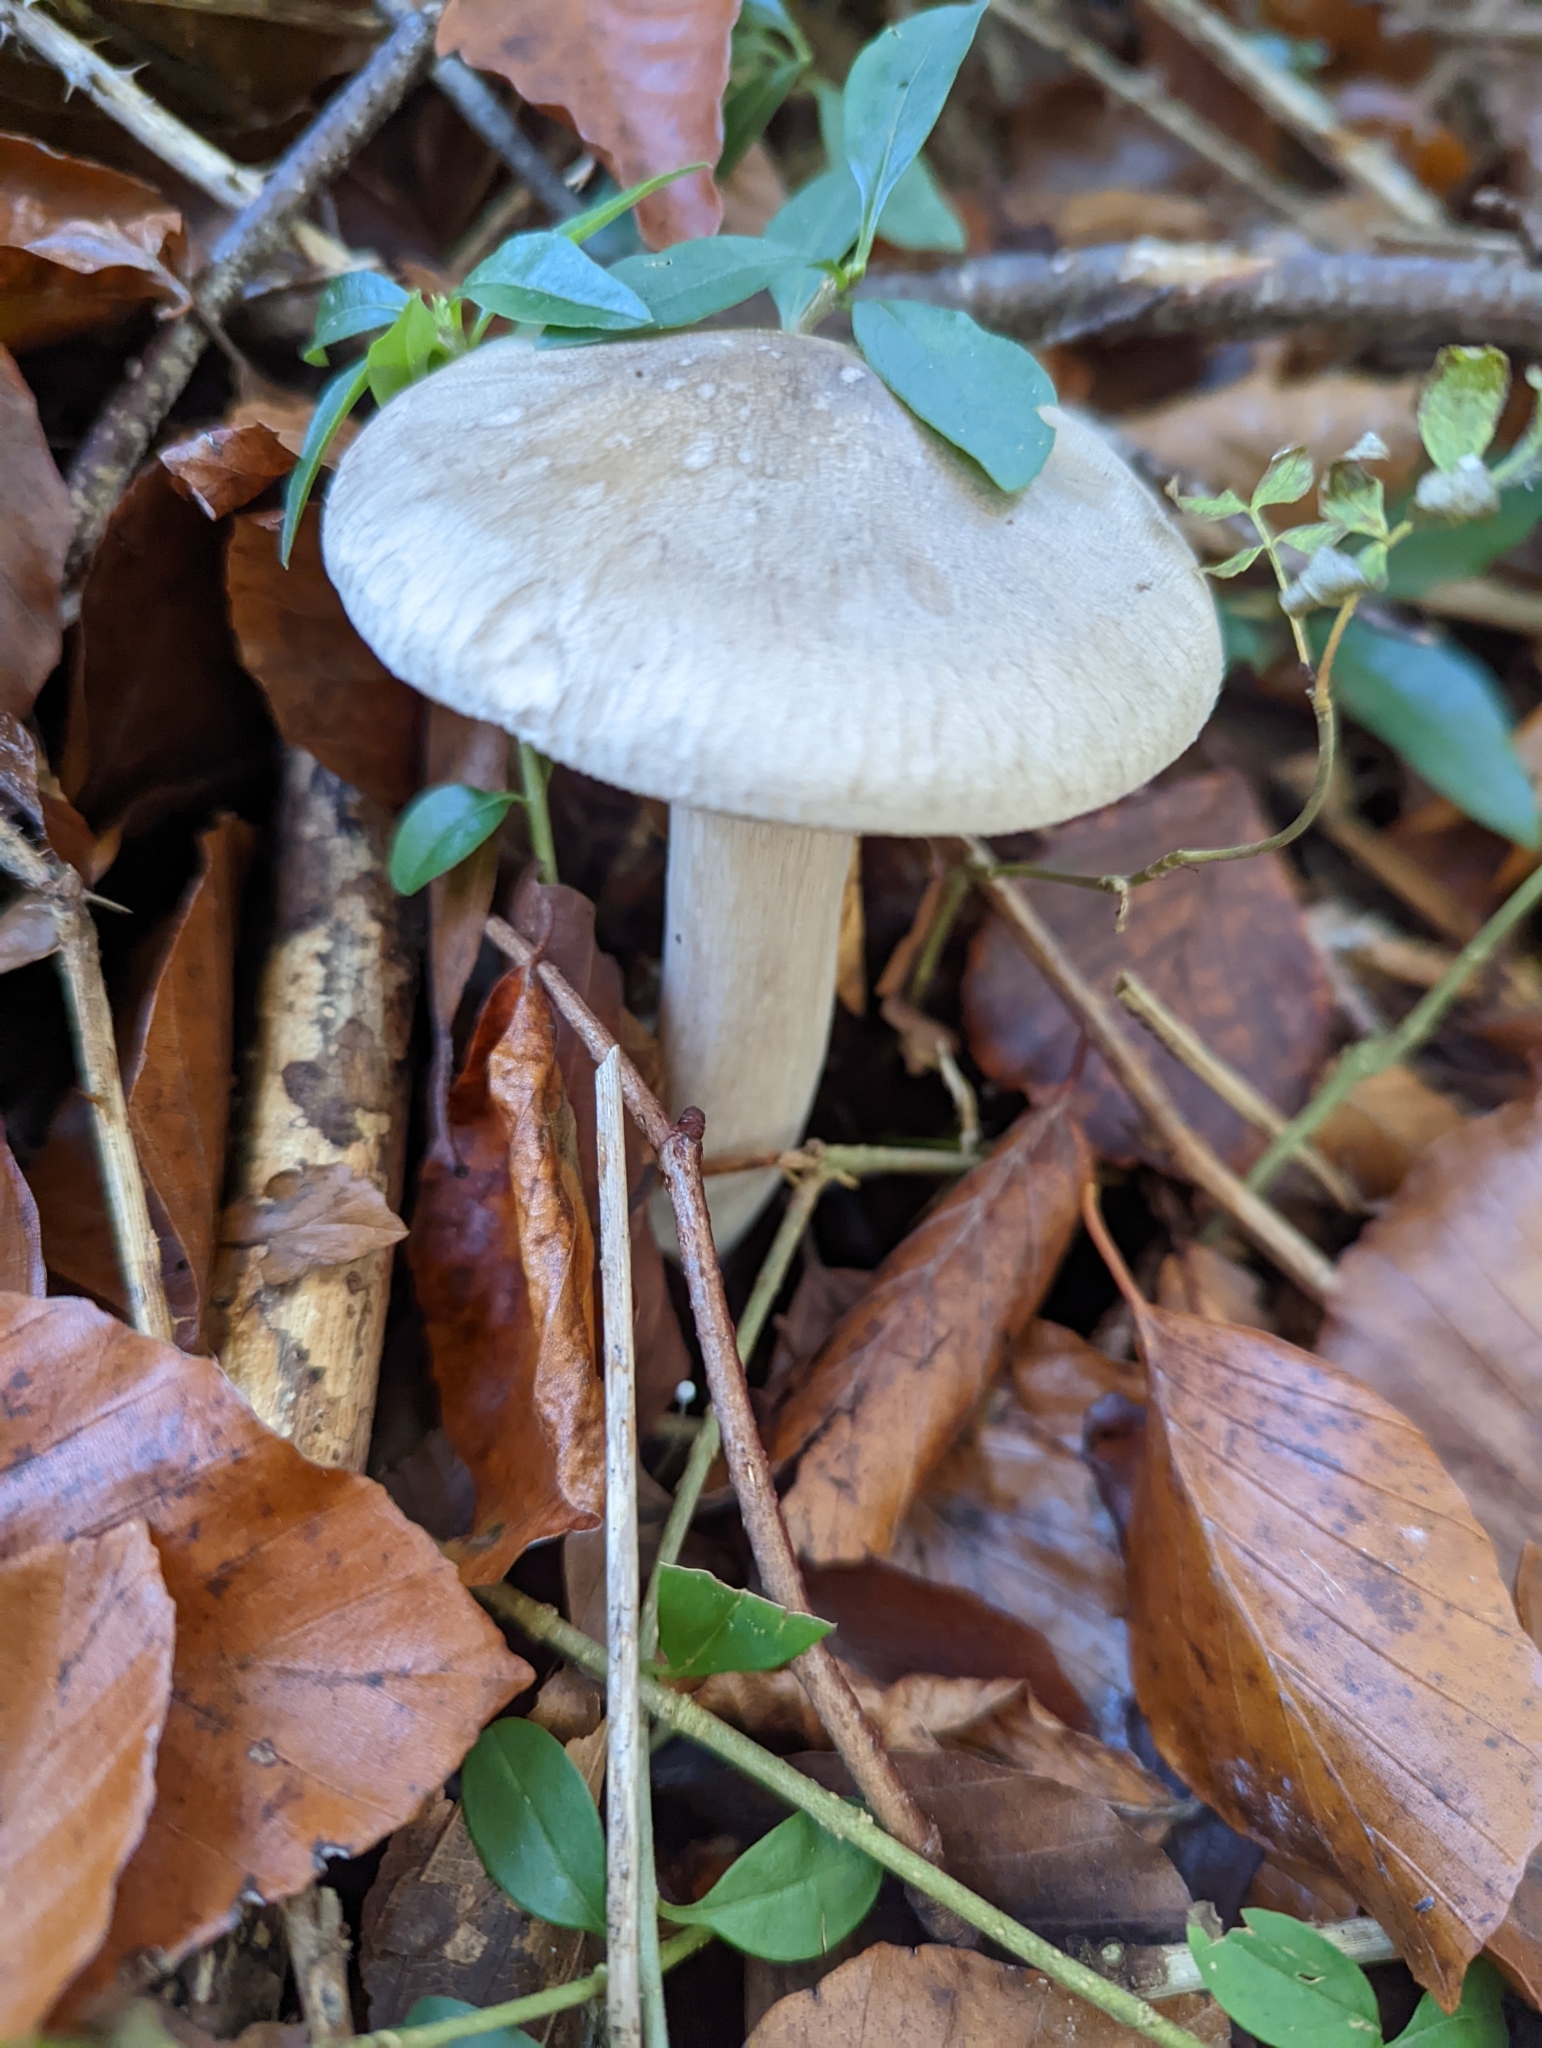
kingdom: Fungi
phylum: Basidiomycota
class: Agaricomycetes
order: Agaricales
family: Tricholomataceae
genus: Clitocybe
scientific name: Clitocybe nebularis
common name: Clouded agaric
